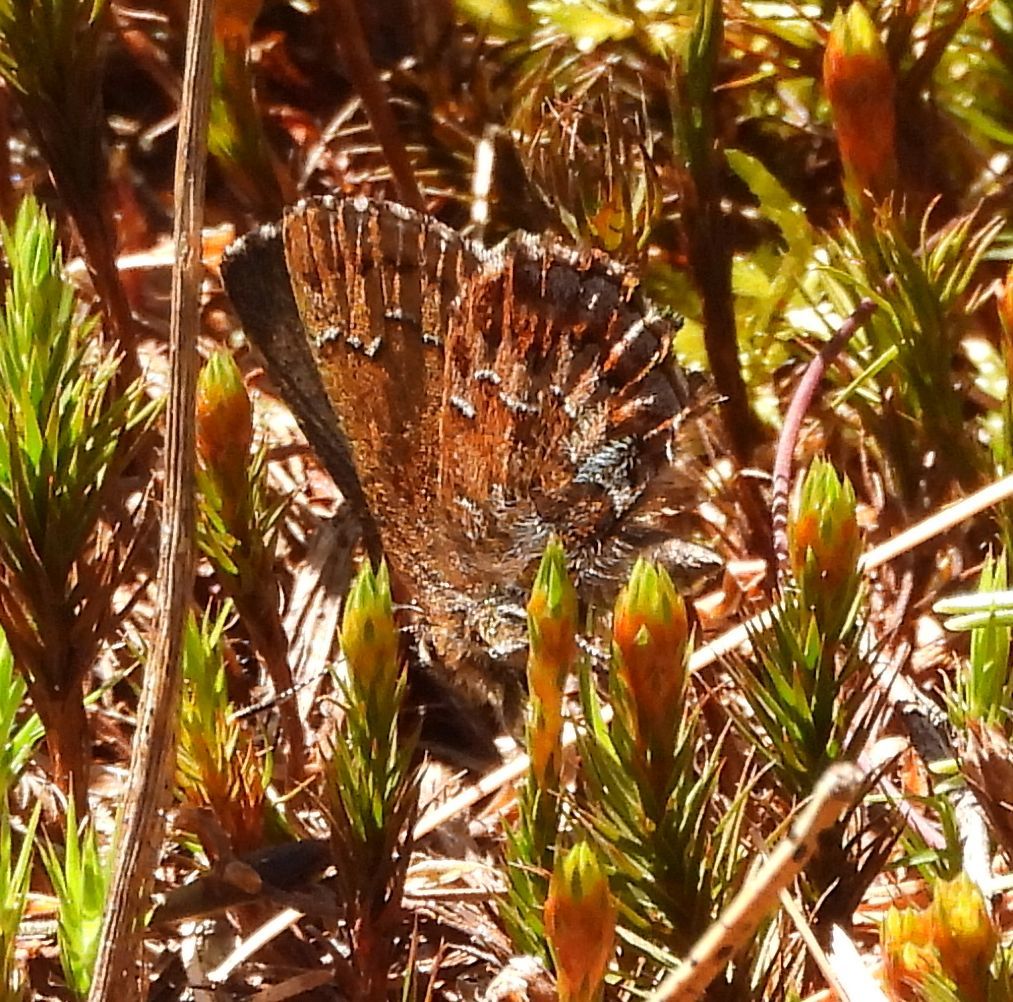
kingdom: Animalia
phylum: Arthropoda
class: Insecta
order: Lepidoptera
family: Lycaenidae
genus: Incisalia
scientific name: Incisalia niphon
